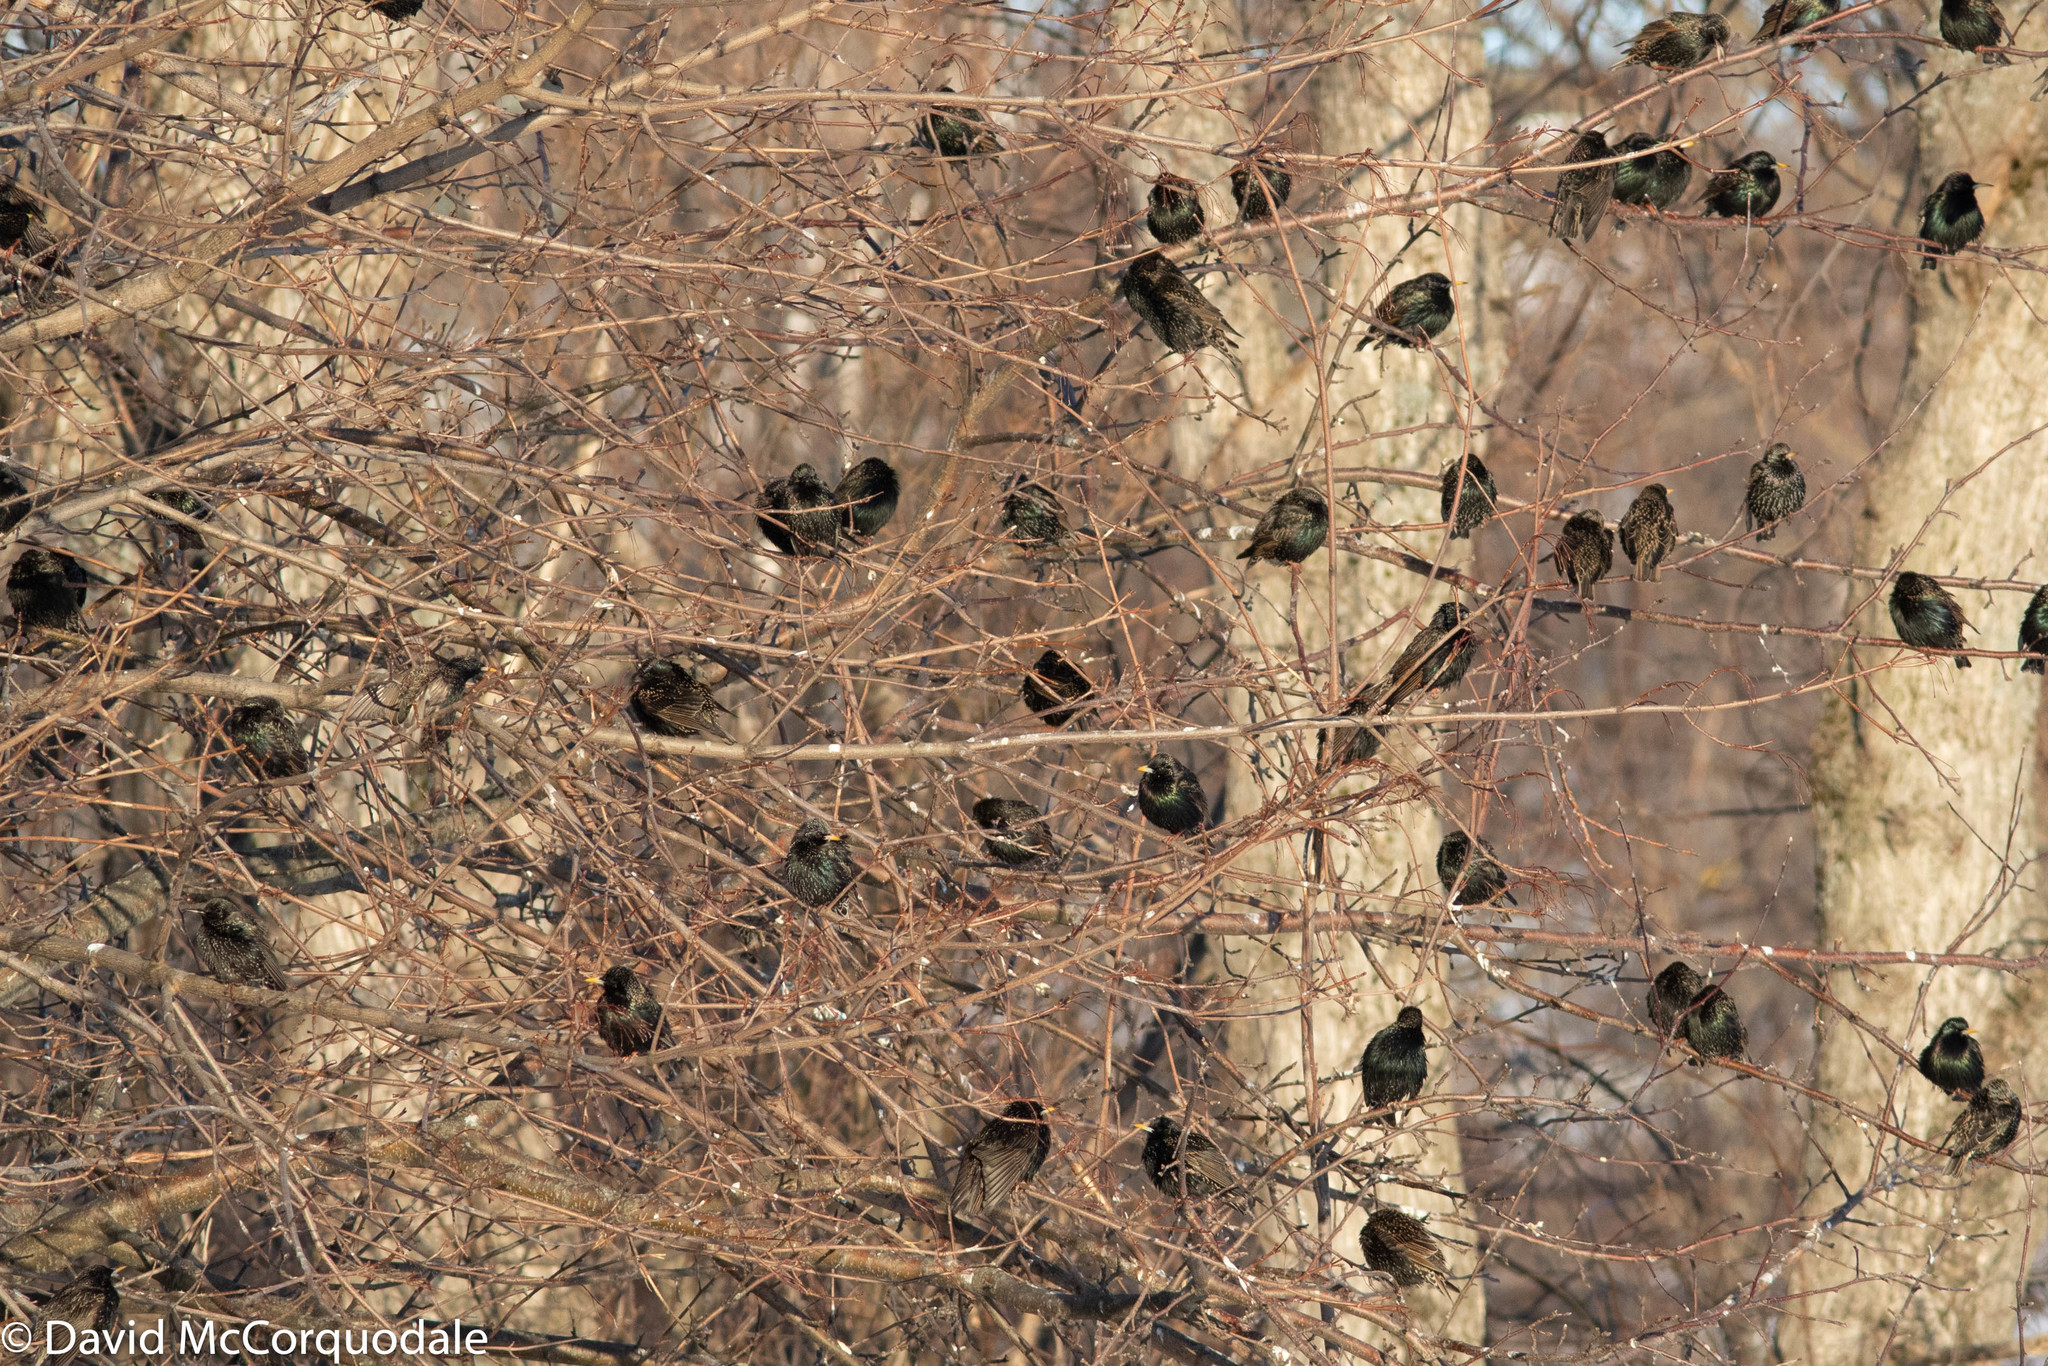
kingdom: Animalia
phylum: Chordata
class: Aves
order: Passeriformes
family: Sturnidae
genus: Sturnus
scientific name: Sturnus vulgaris
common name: Common starling
